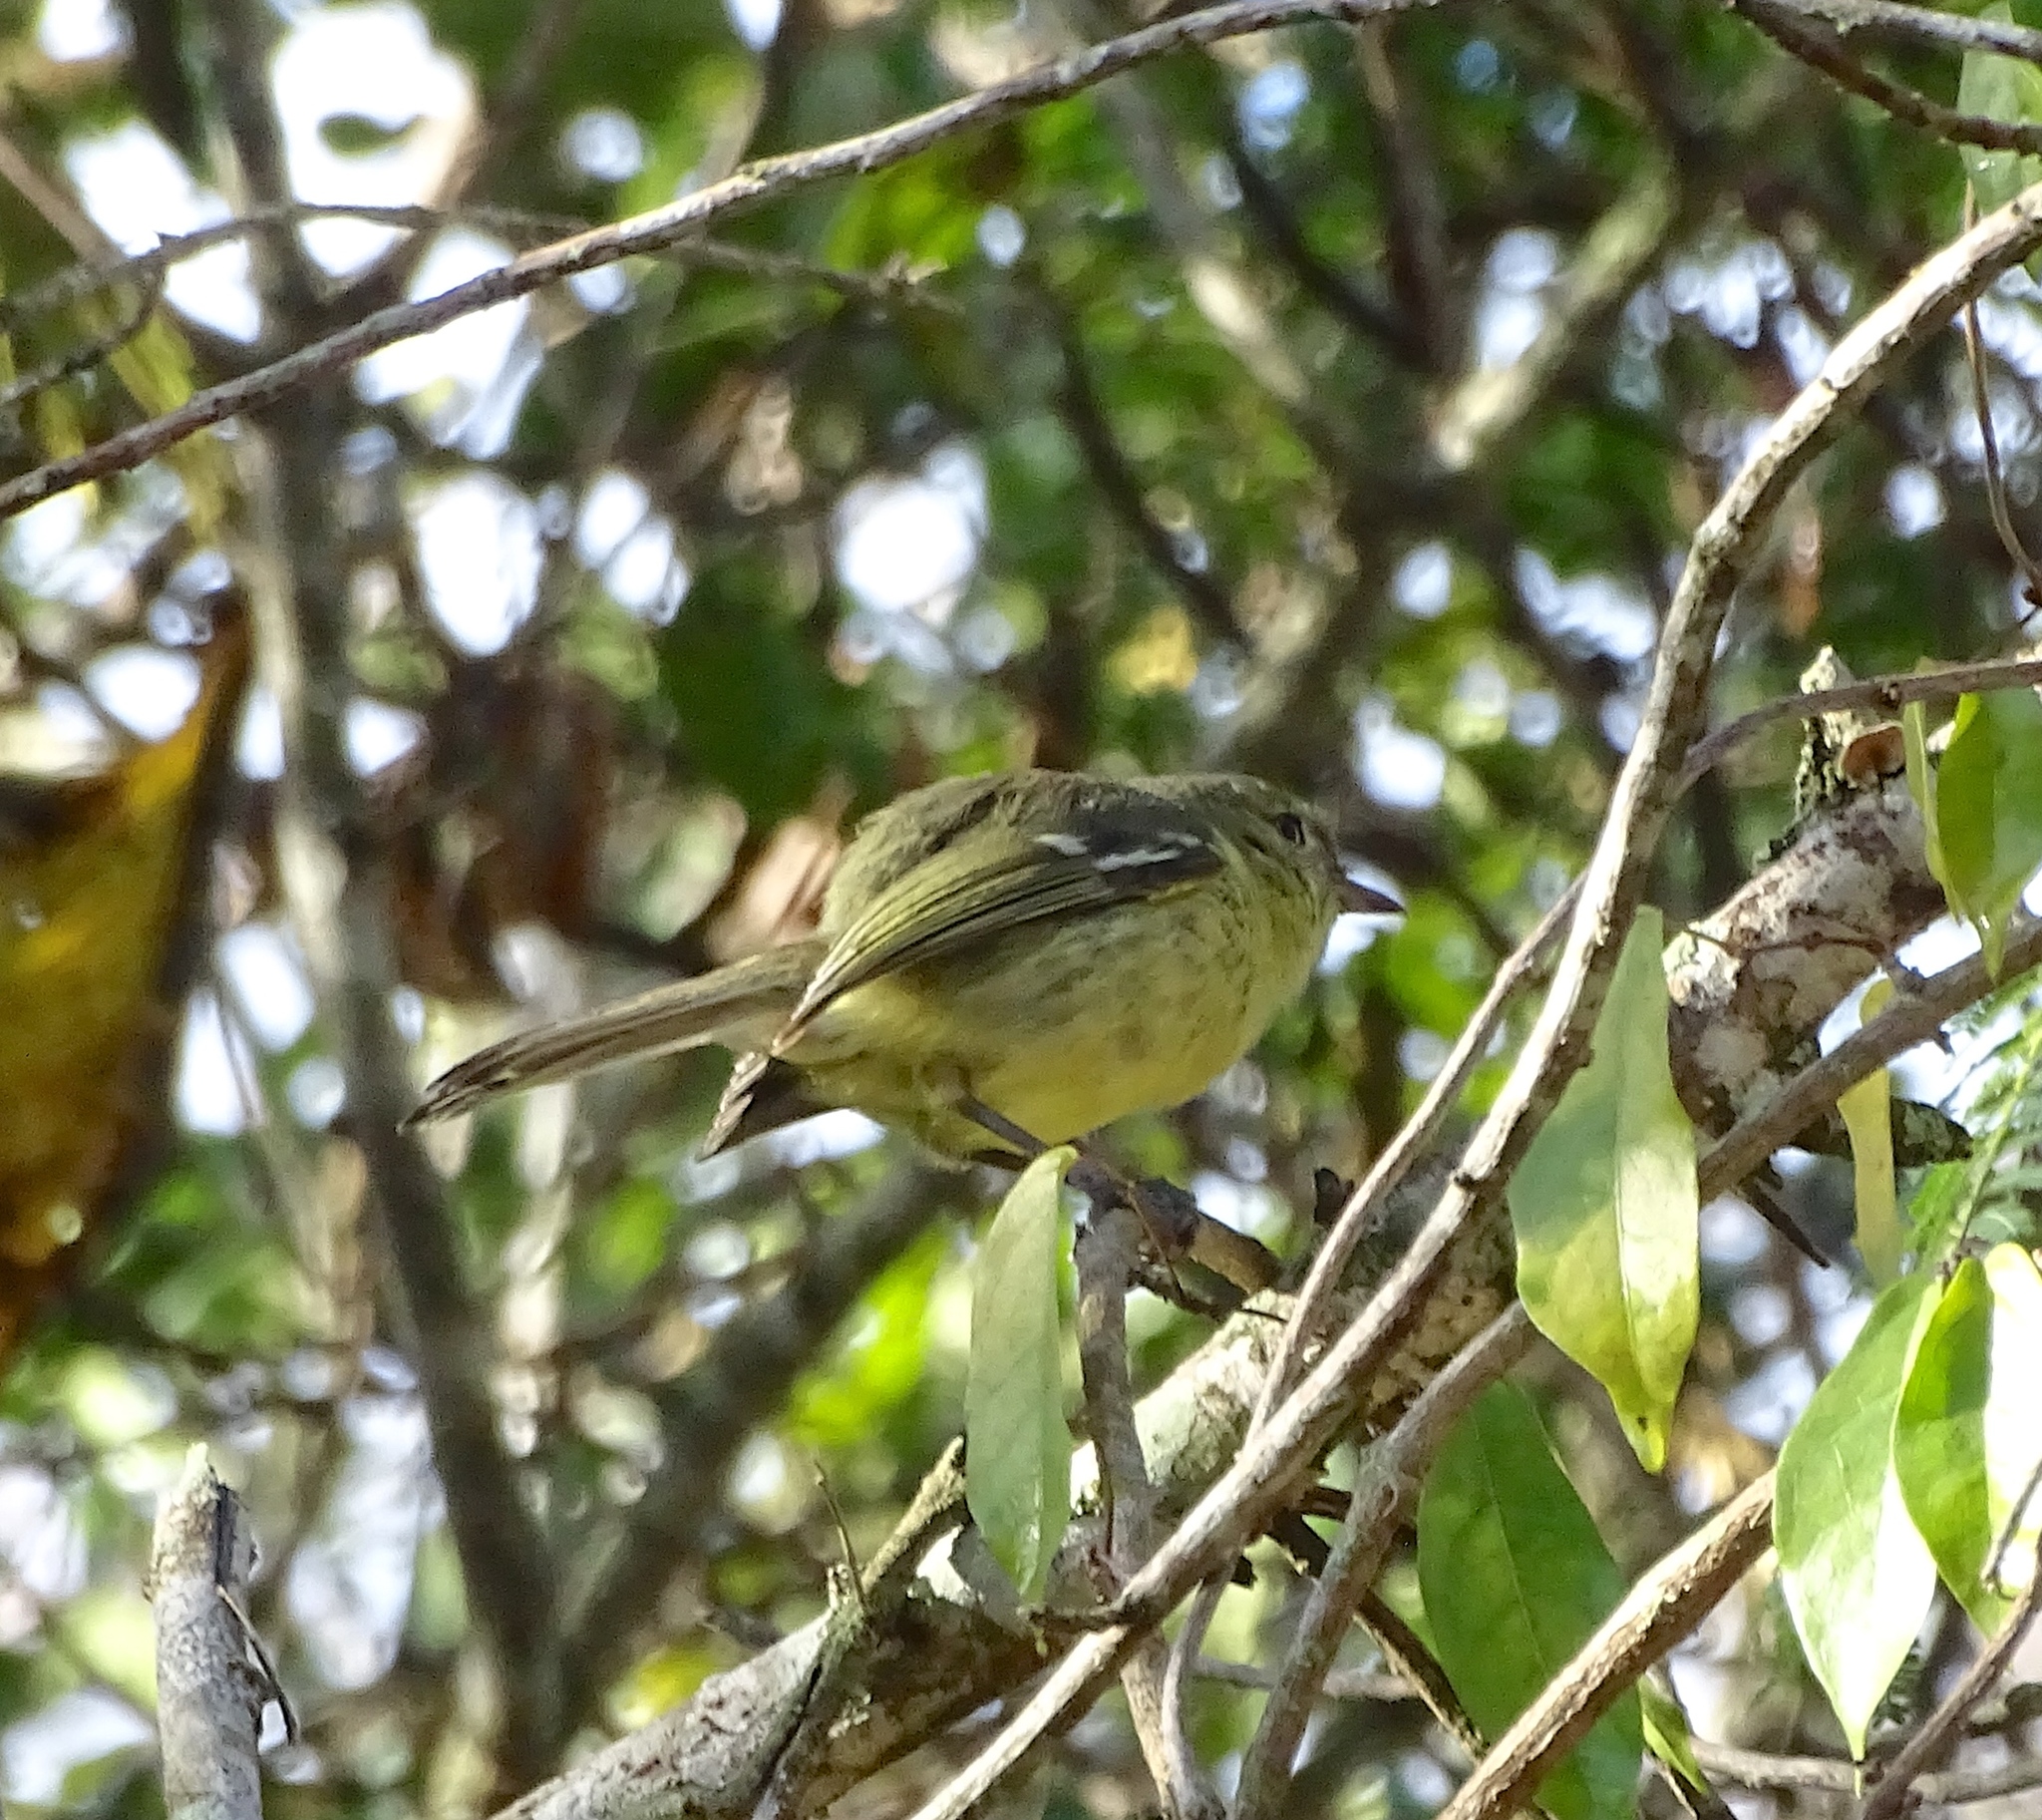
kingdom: Animalia
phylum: Chordata
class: Aves
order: Passeriformes
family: Vireonidae
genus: Vireo
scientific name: Vireo nanus
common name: Flat-billed vireo
